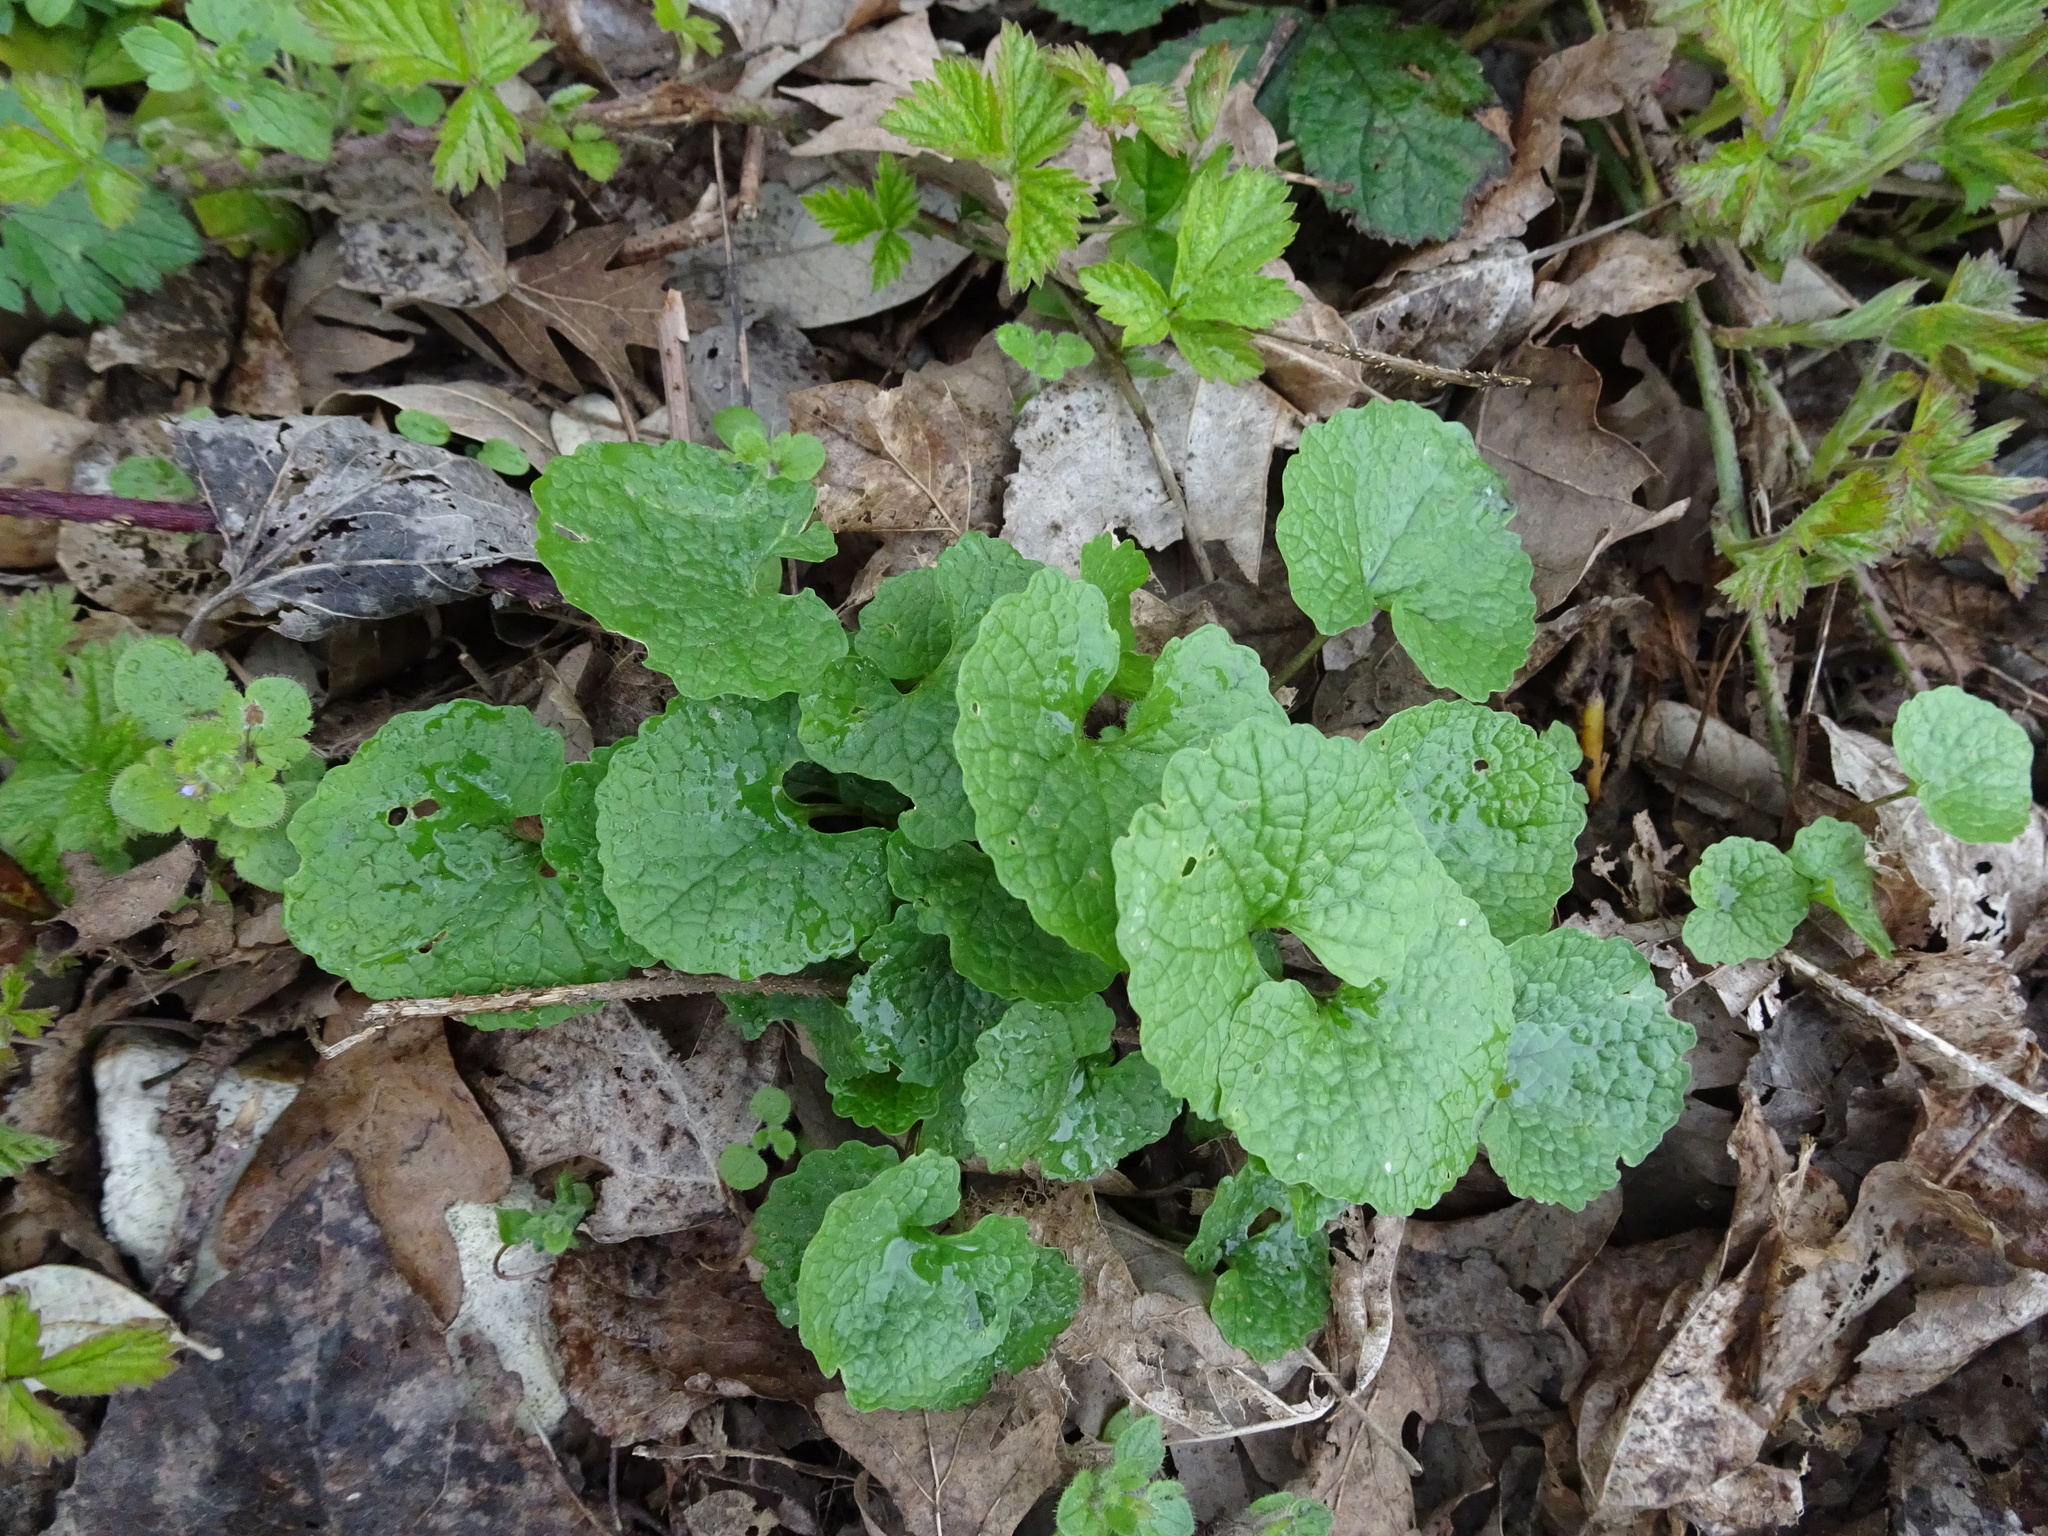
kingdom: Plantae
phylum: Tracheophyta
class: Magnoliopsida
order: Brassicales
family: Brassicaceae
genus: Alliaria
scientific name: Alliaria petiolata
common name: Garlic mustard
